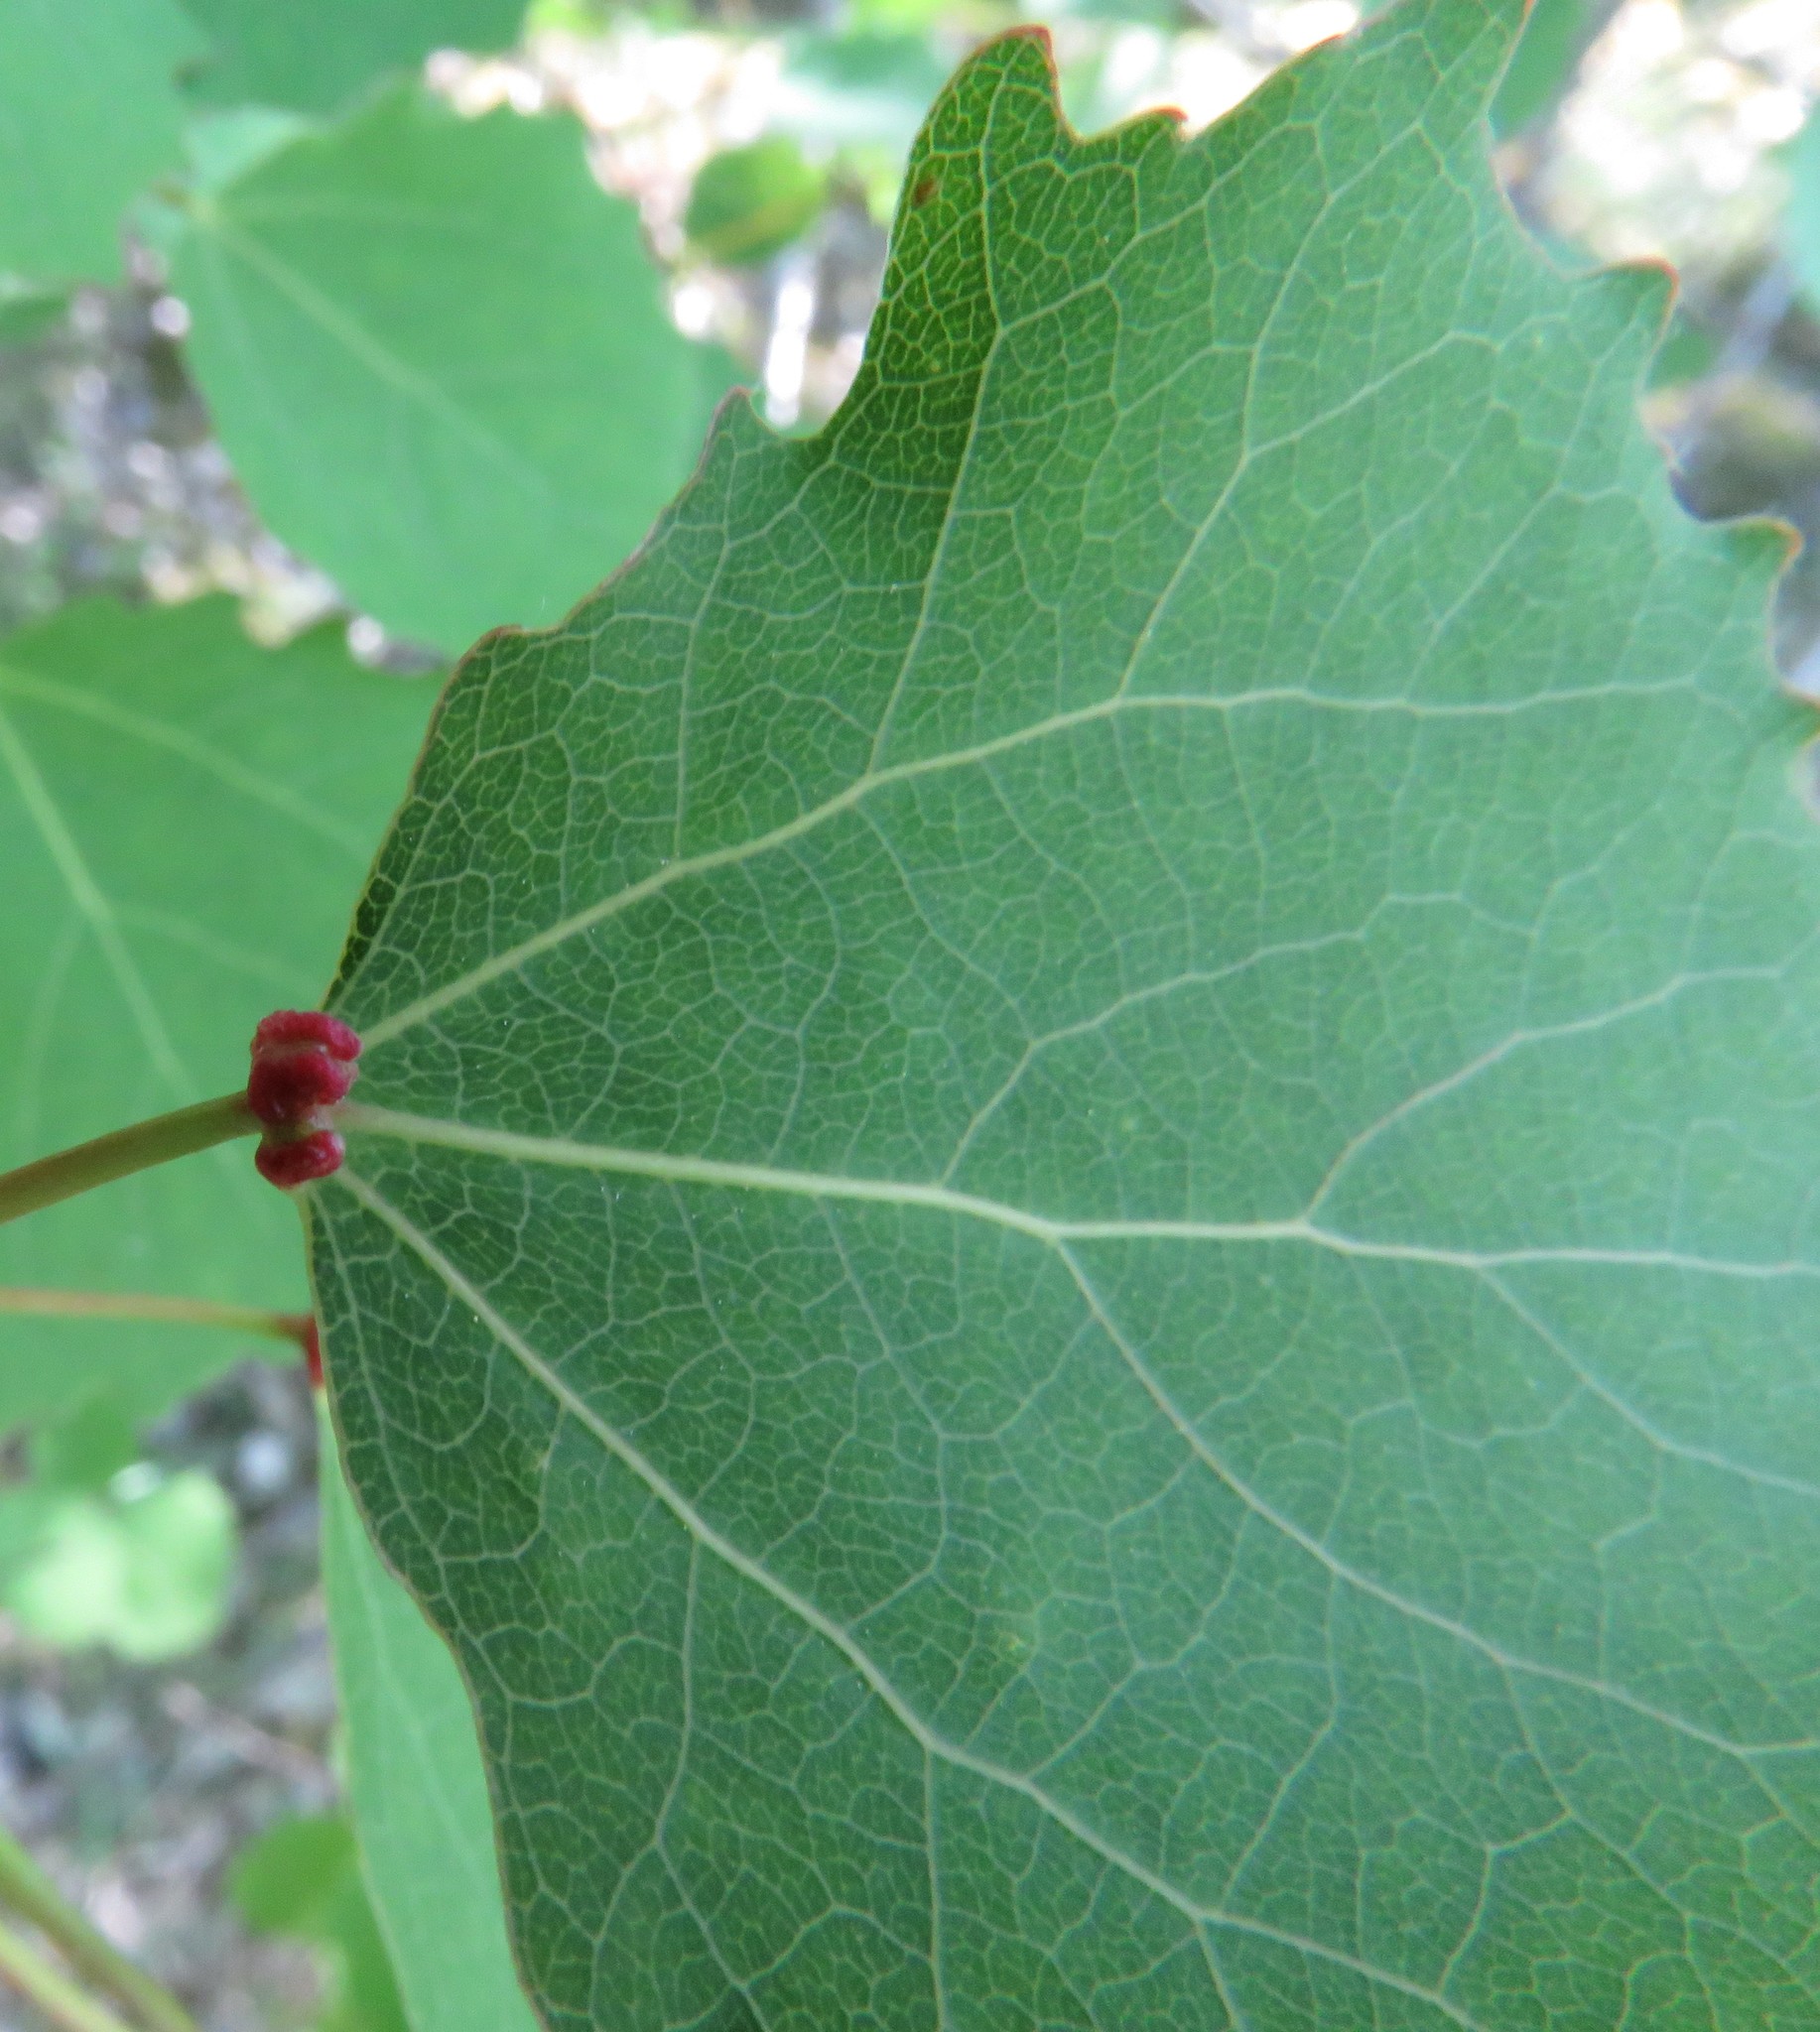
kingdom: Animalia
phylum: Arthropoda
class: Arachnida
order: Trombidiformes
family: Eriophyidae
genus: Eriophyes
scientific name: Eriophyes diversipunctatus
